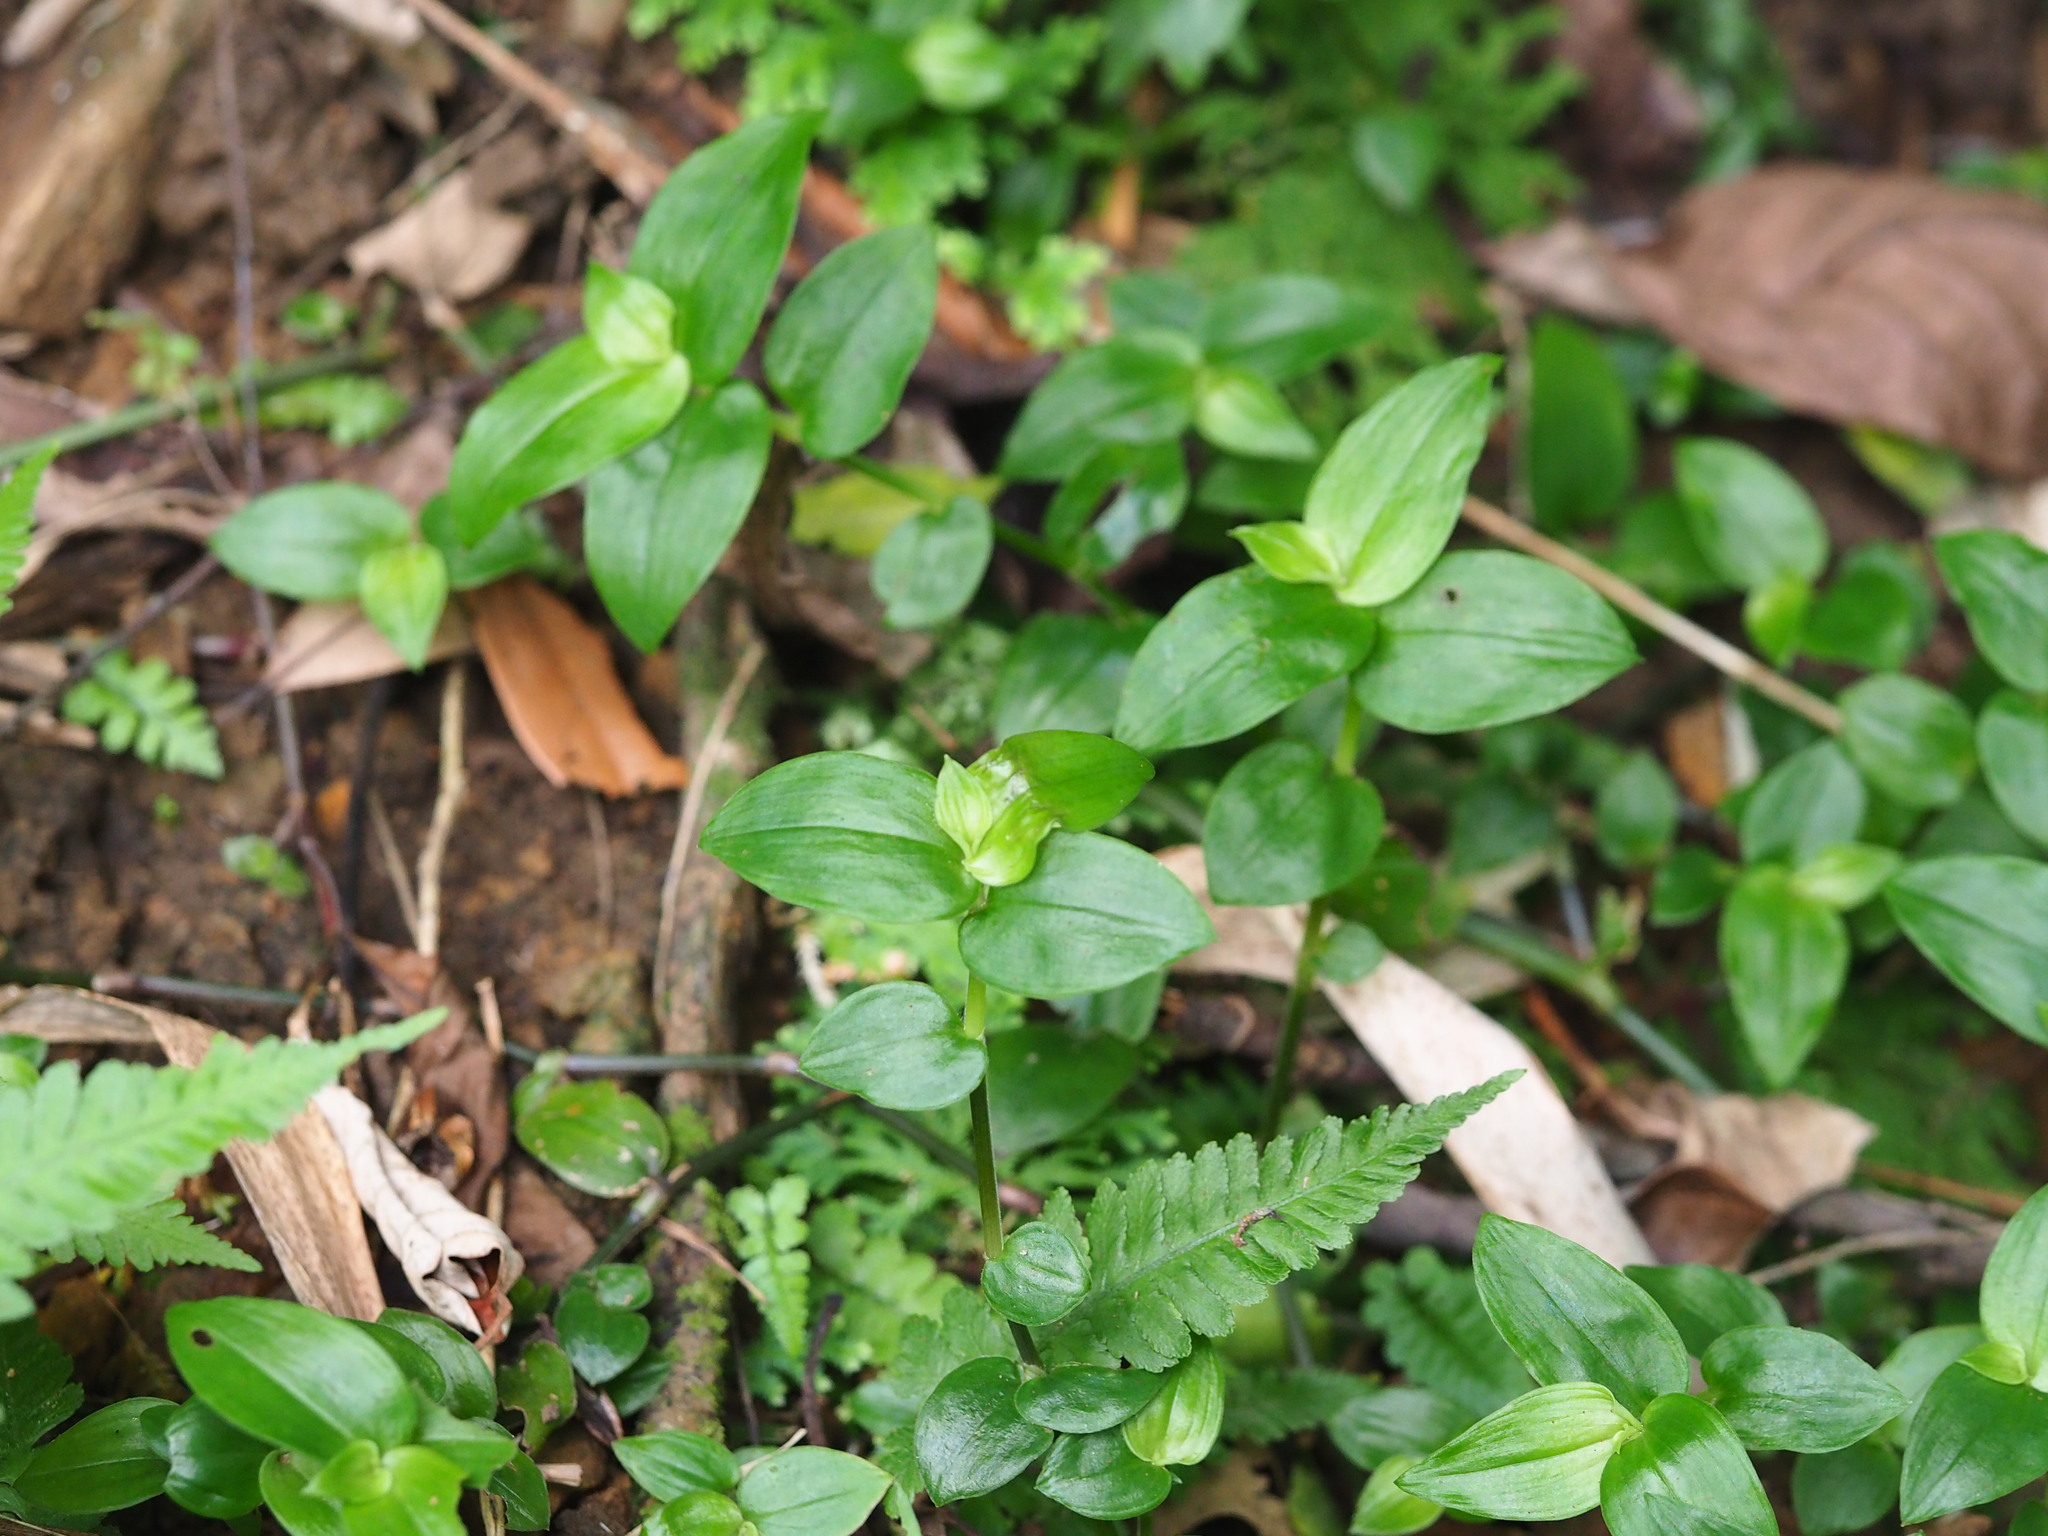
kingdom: Plantae
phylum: Tracheophyta
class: Liliopsida
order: Commelinales
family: Commelinaceae
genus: Tradescantia
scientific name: Tradescantia fluminensis
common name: Wandering-jew
